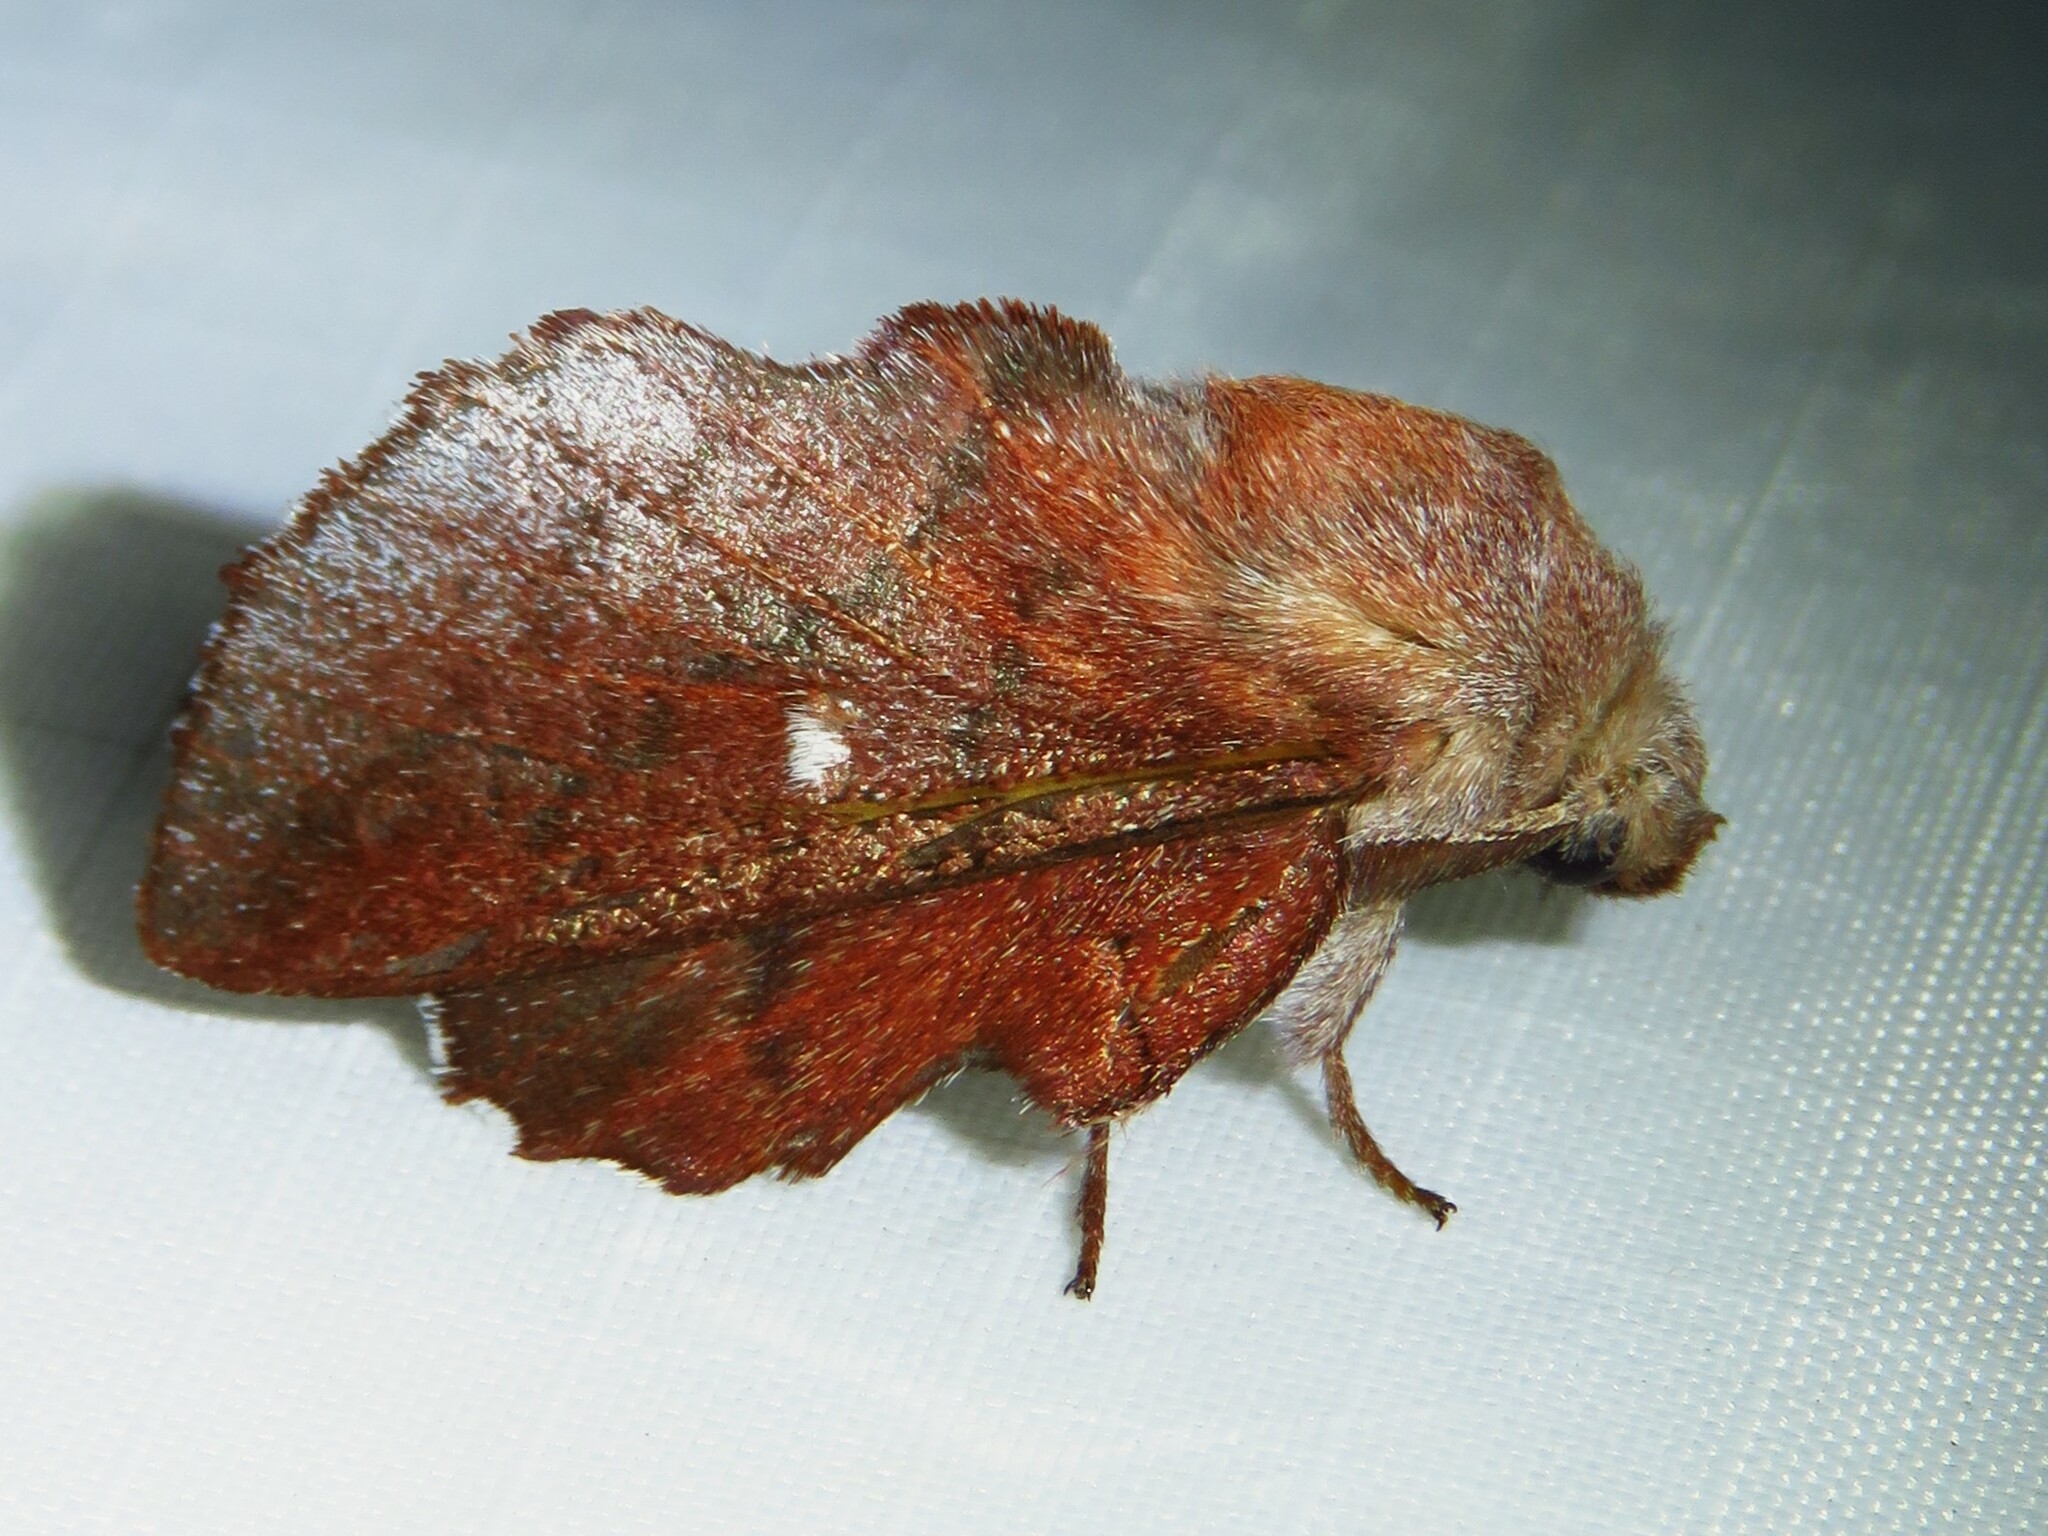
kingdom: Animalia
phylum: Arthropoda
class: Insecta
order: Lepidoptera
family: Lasiocampidae
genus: Phyllodesma
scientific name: Phyllodesma americana
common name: American lappet moth
